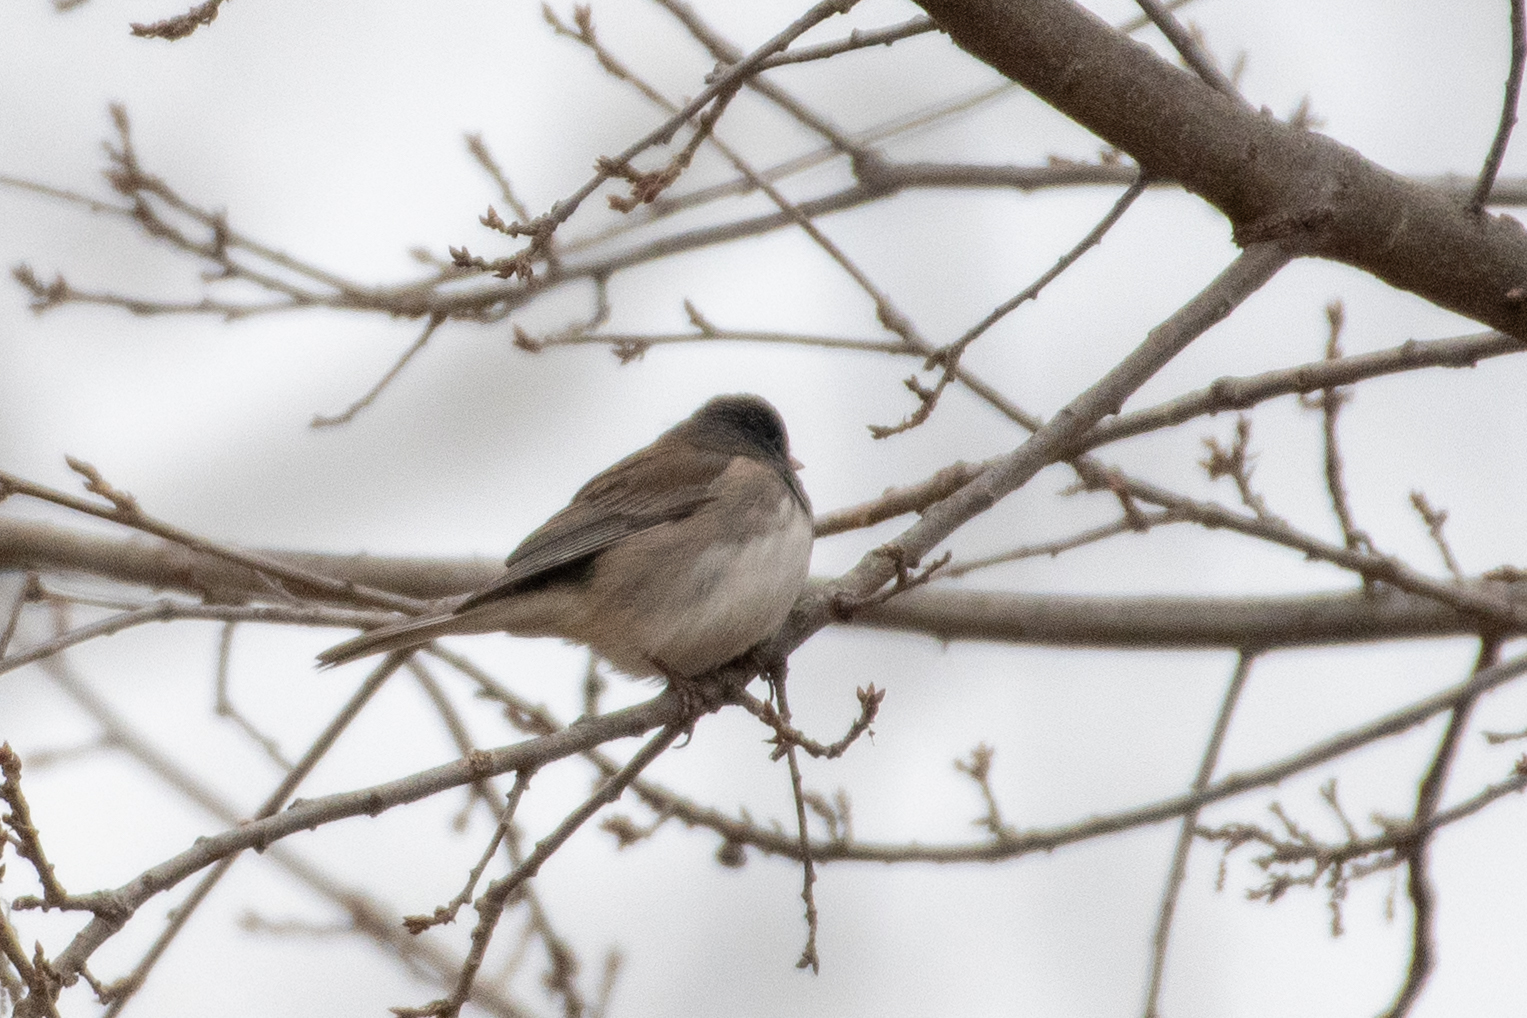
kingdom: Animalia
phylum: Chordata
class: Aves
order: Passeriformes
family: Passerellidae
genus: Junco
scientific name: Junco hyemalis
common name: Dark-eyed junco
